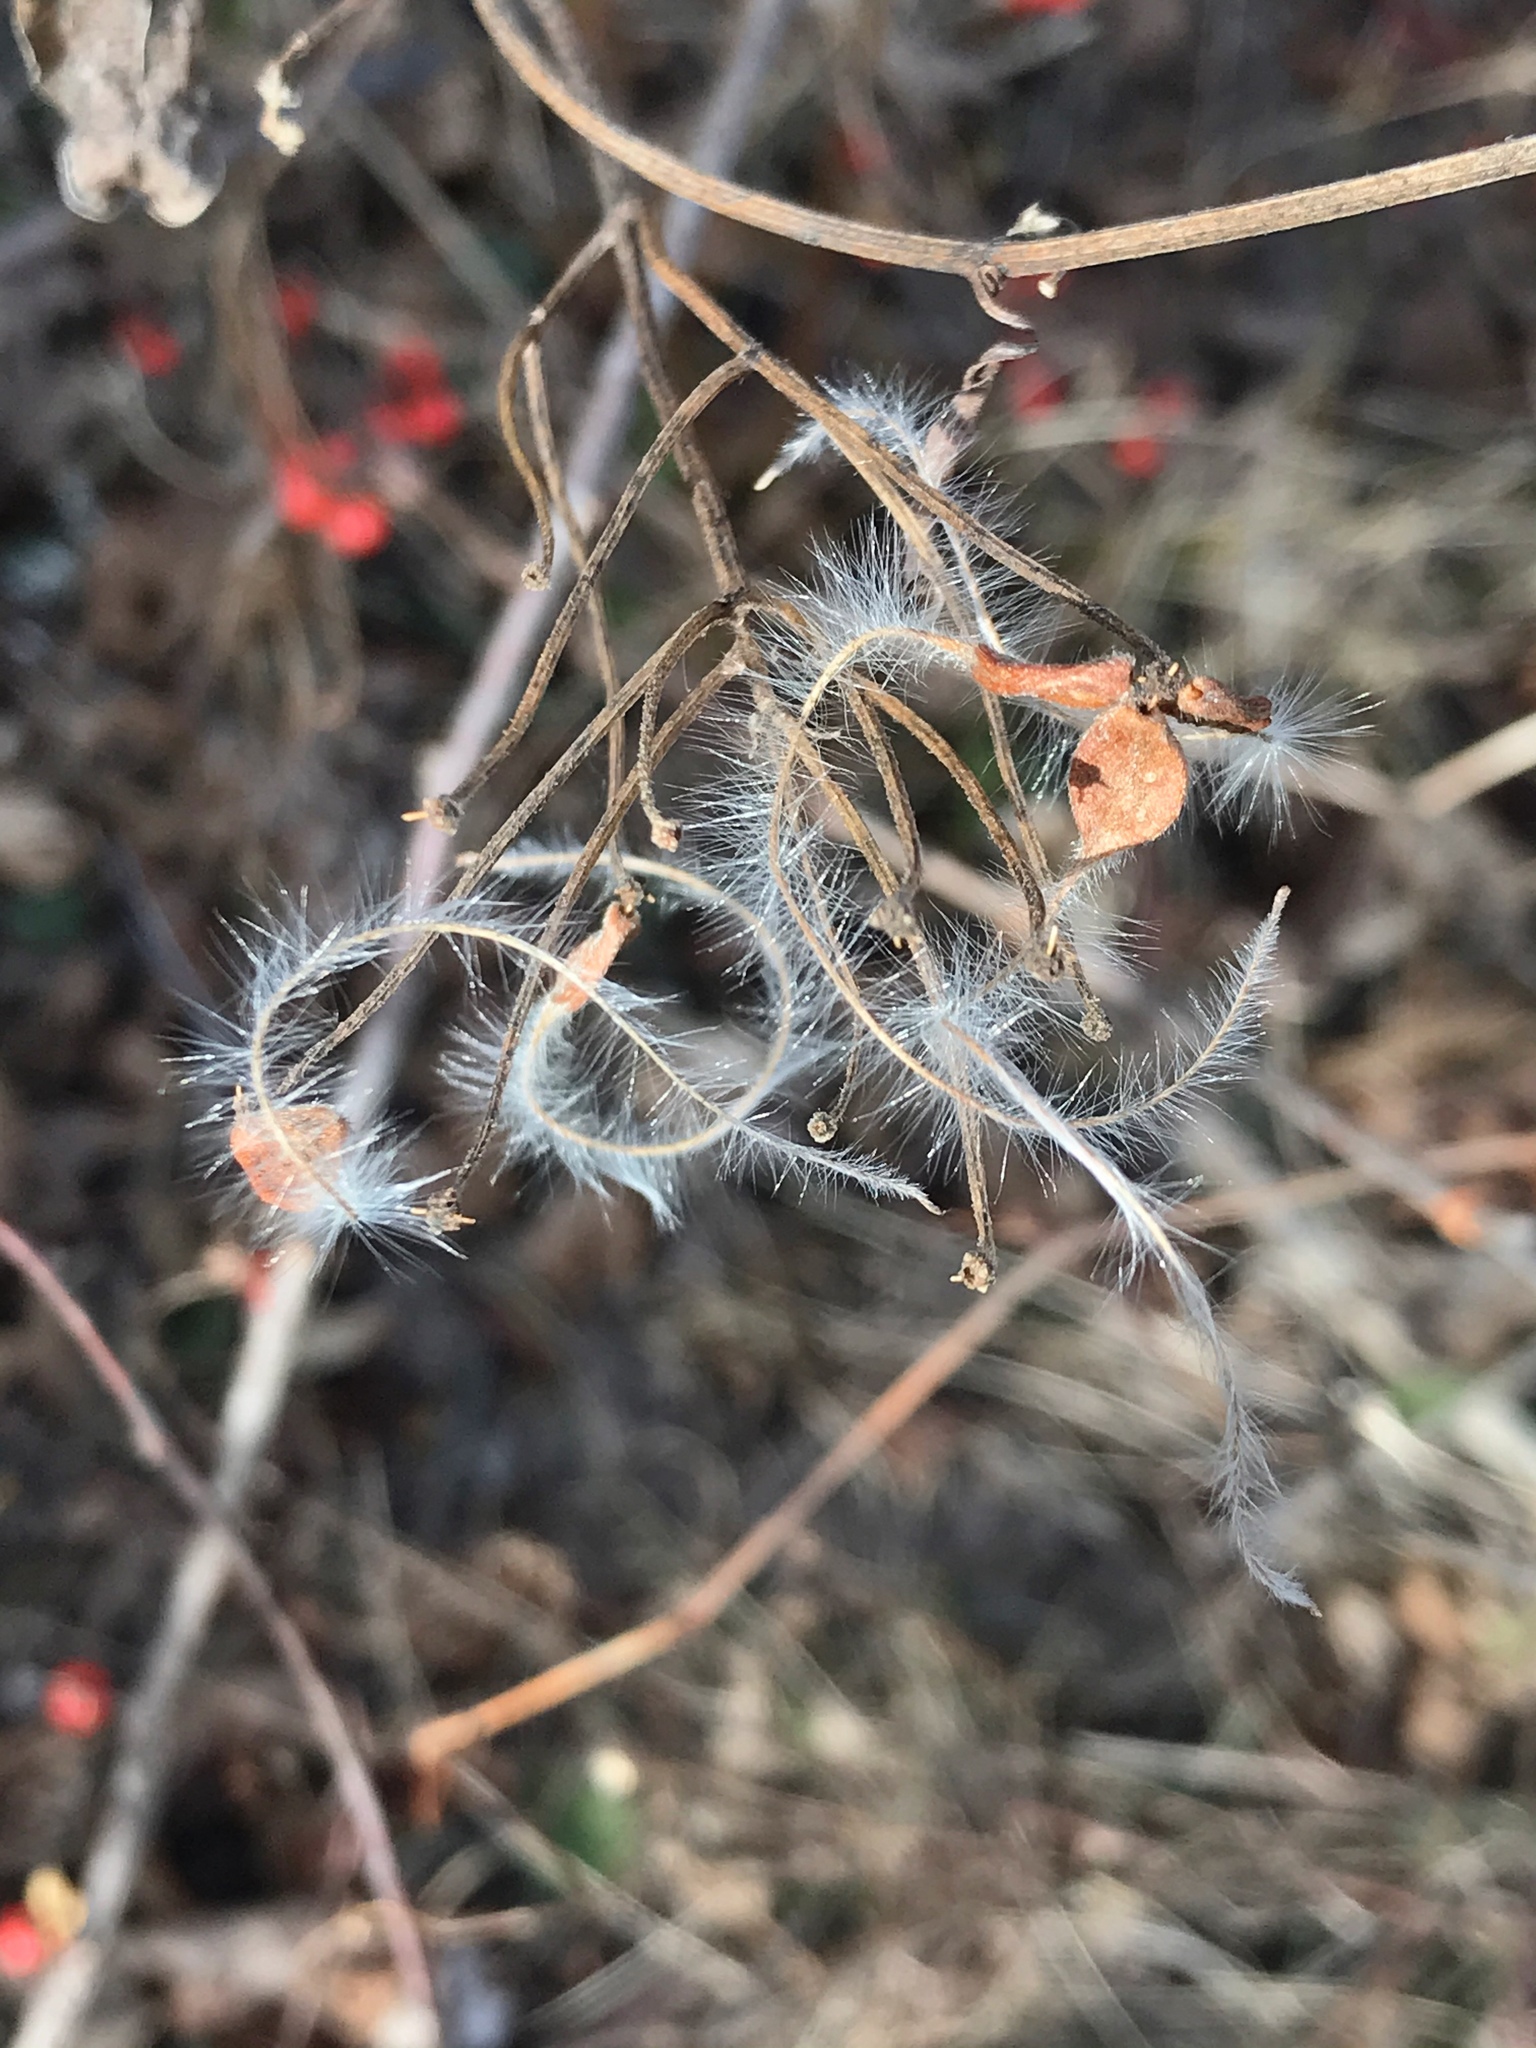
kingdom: Plantae
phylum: Tracheophyta
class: Magnoliopsida
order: Ranunculales
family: Ranunculaceae
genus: Clematis
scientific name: Clematis terniflora
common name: Sweet autumn clematis
